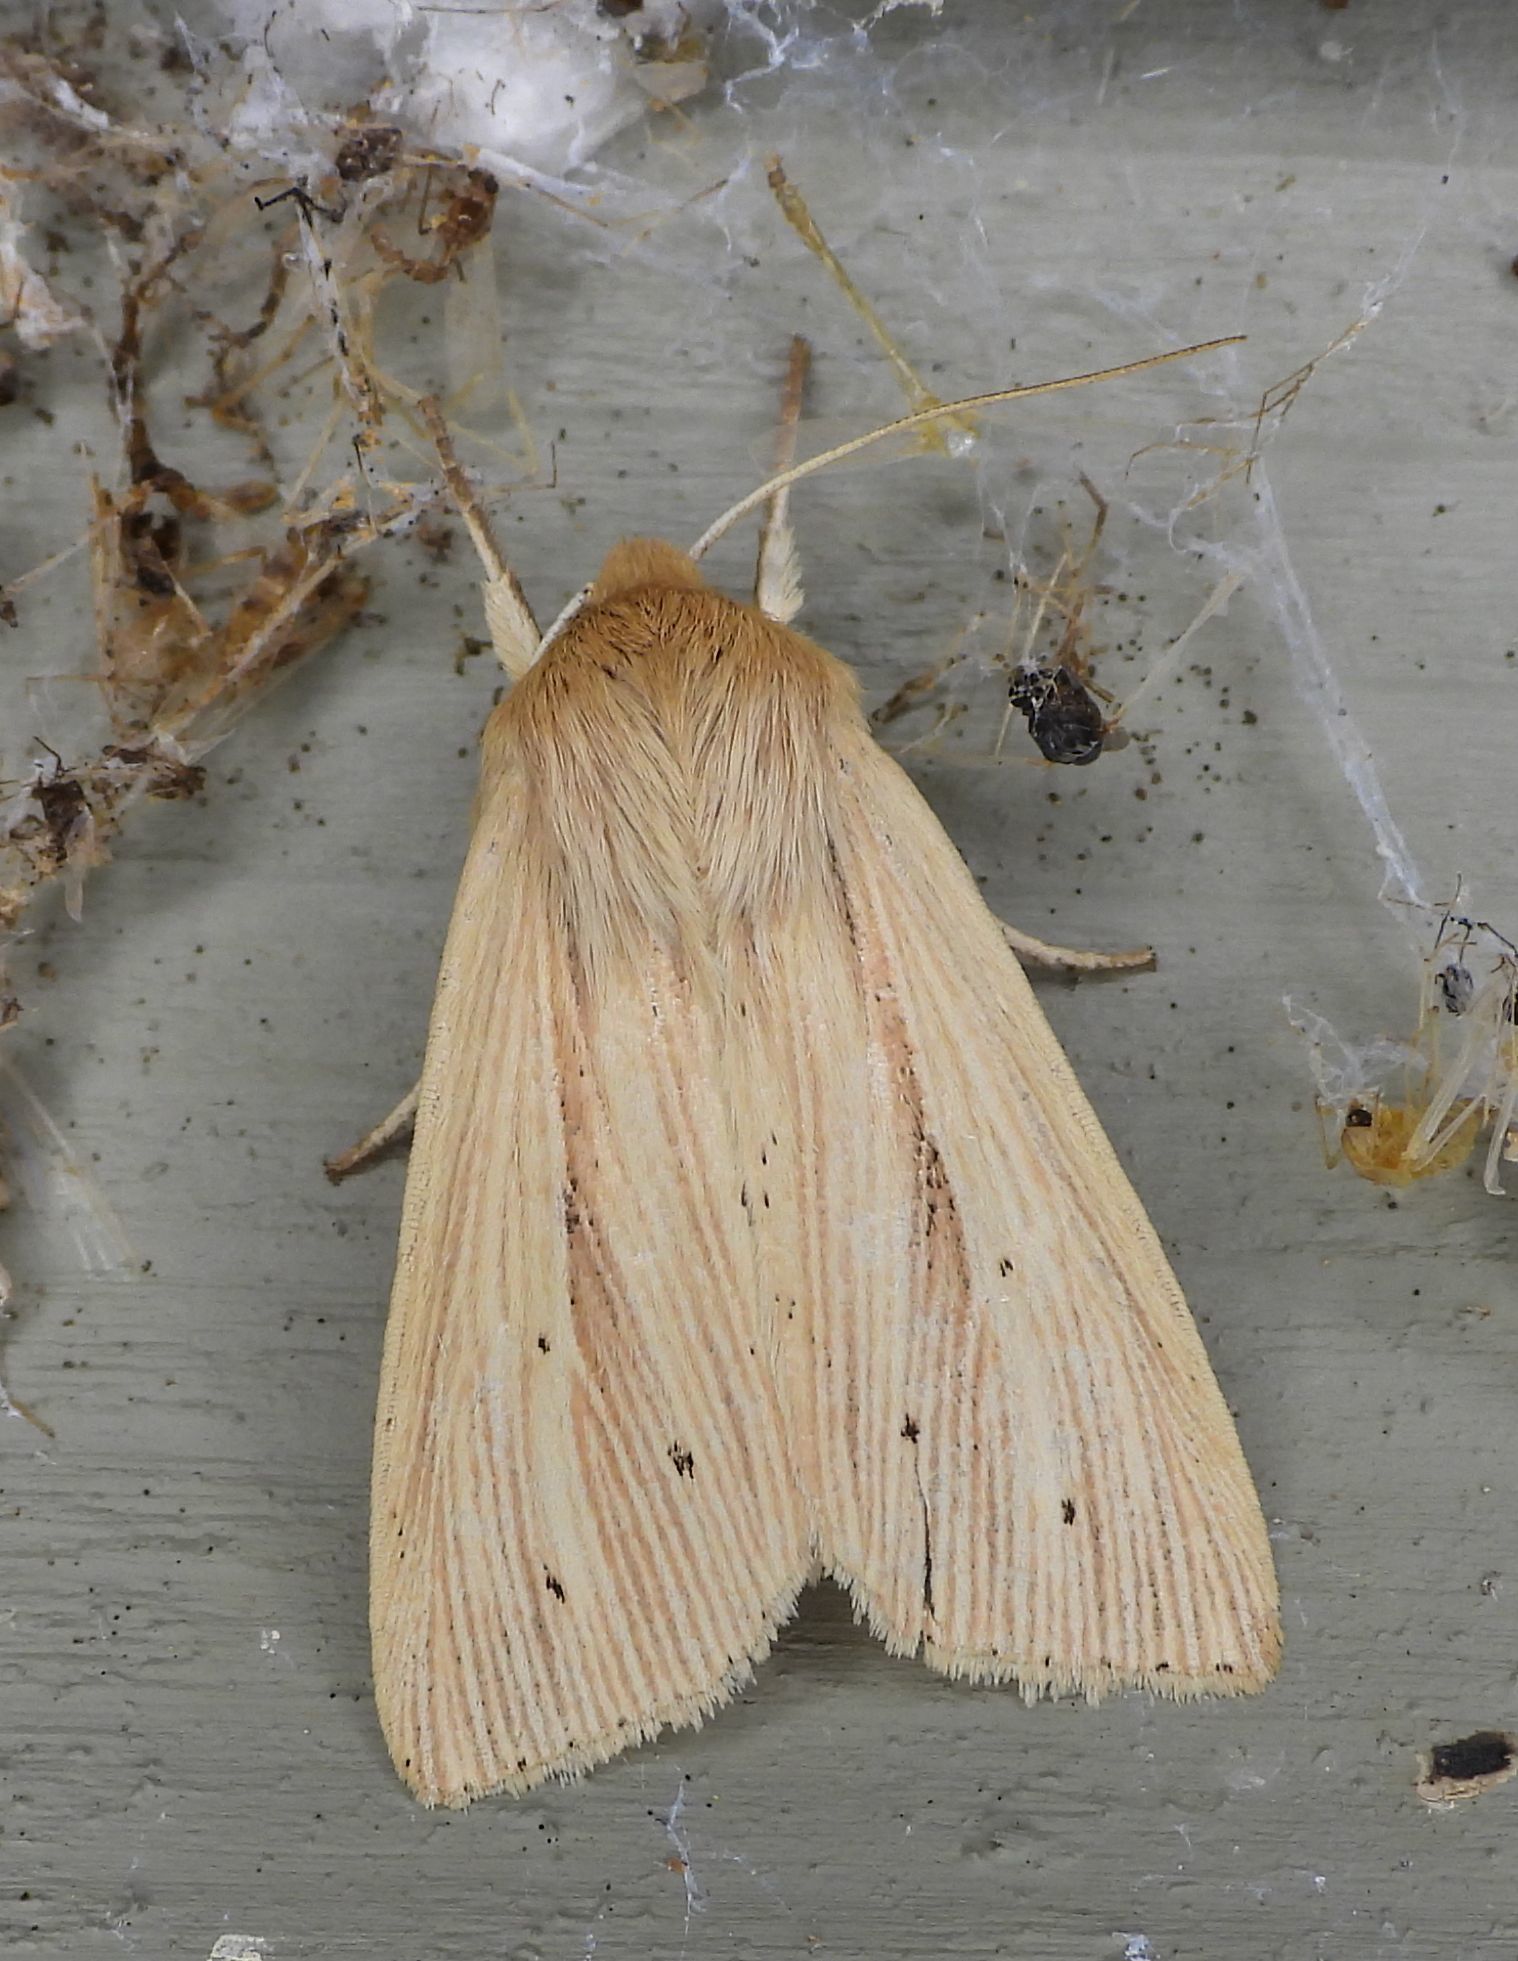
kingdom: Animalia
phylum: Arthropoda
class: Insecta
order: Lepidoptera
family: Noctuidae
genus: Mythimna
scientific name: Mythimna oxygala
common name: Lesser wainscot
